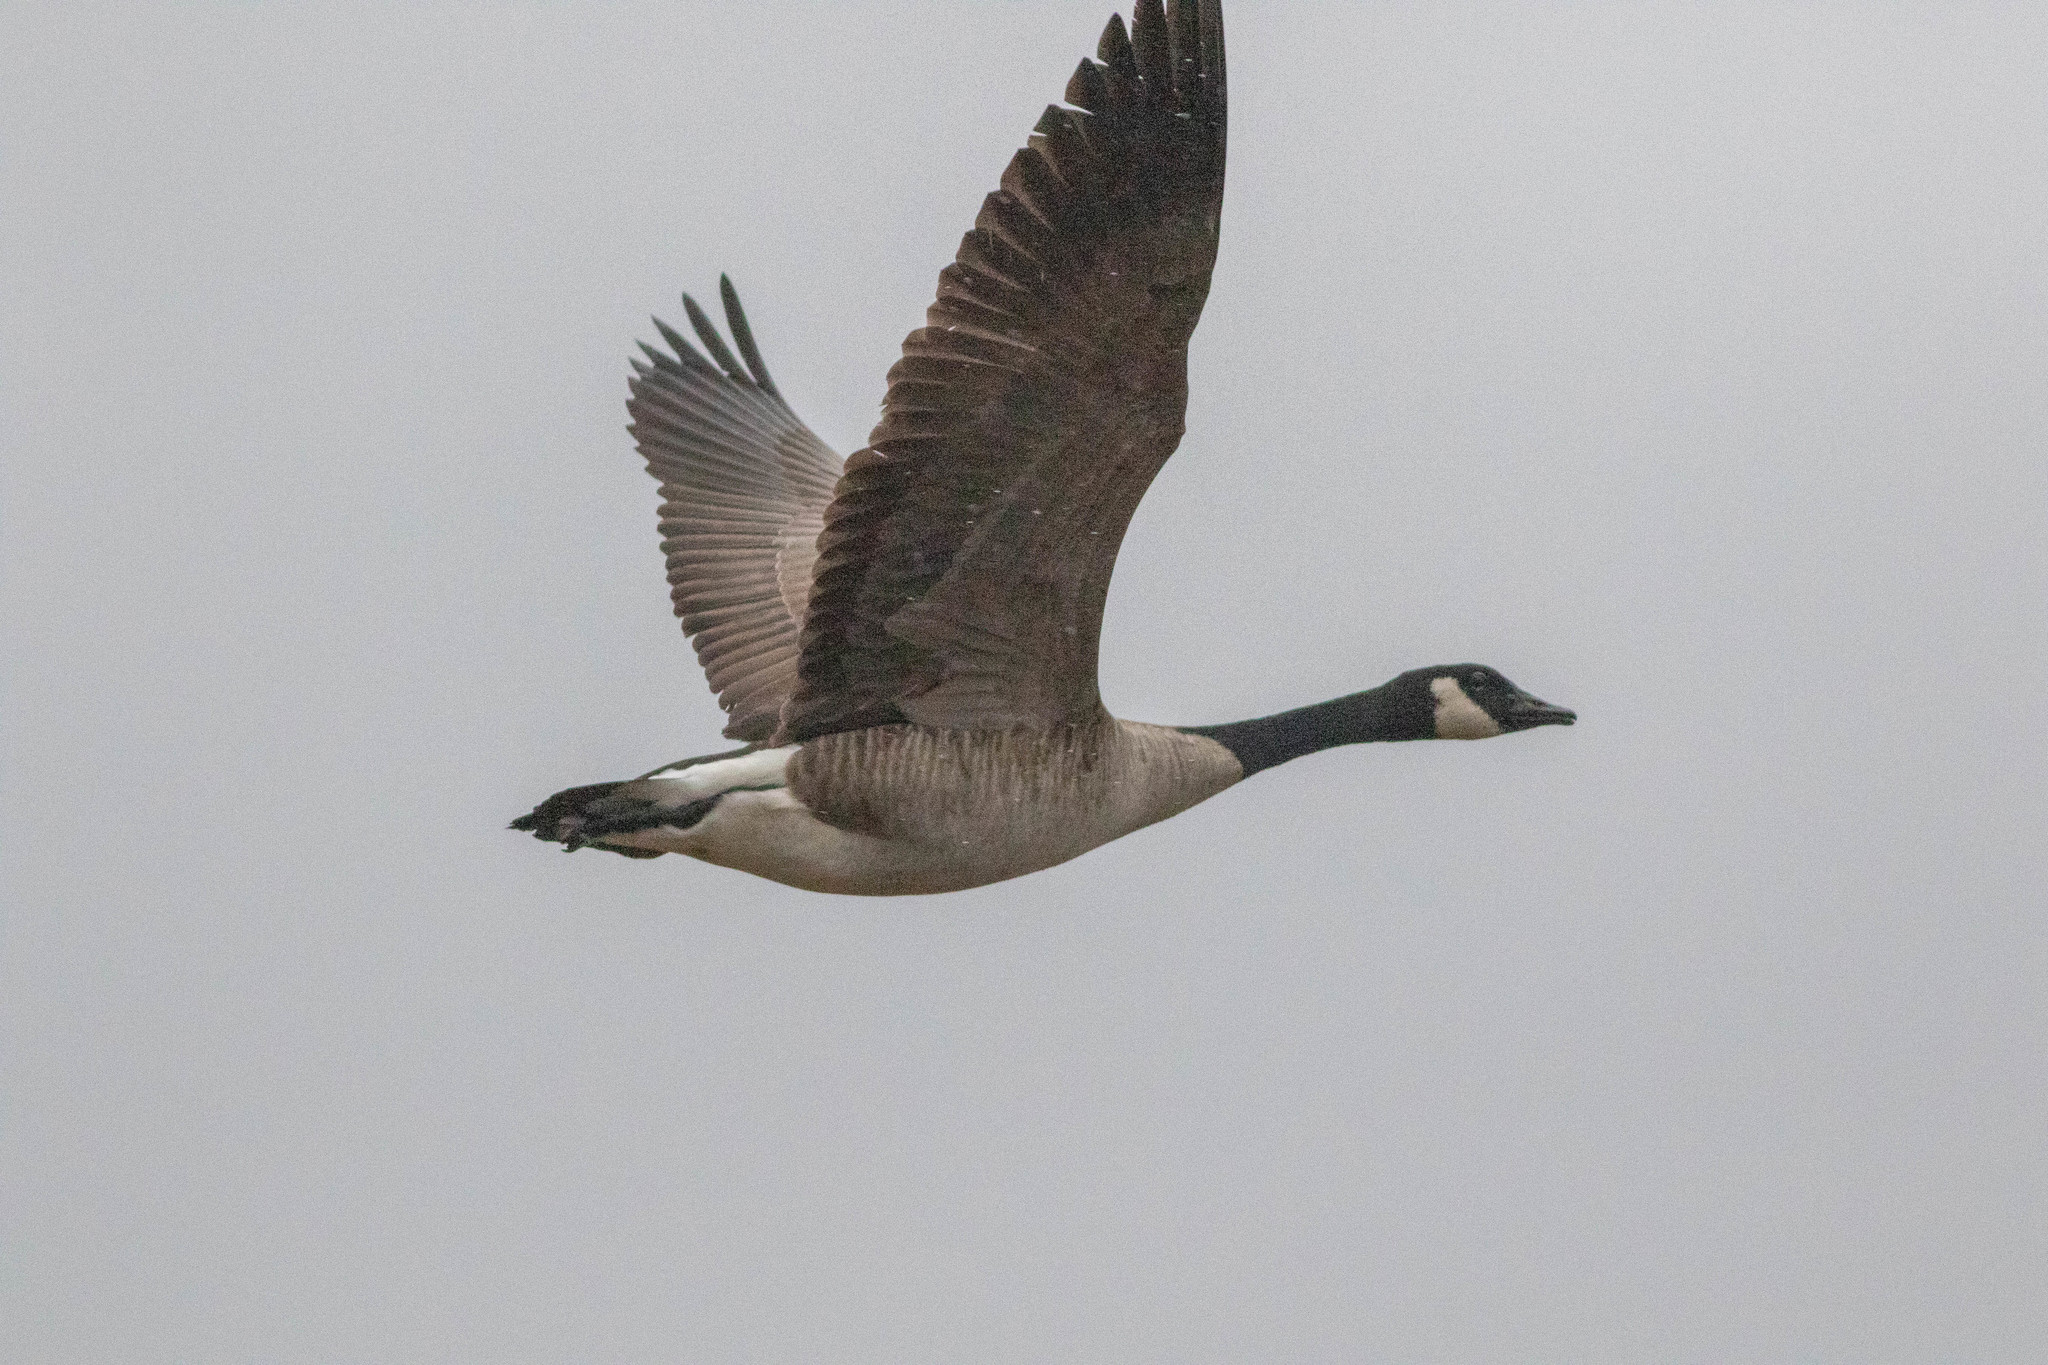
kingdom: Animalia
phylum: Chordata
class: Aves
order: Anseriformes
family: Anatidae
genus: Branta
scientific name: Branta canadensis
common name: Canada goose
